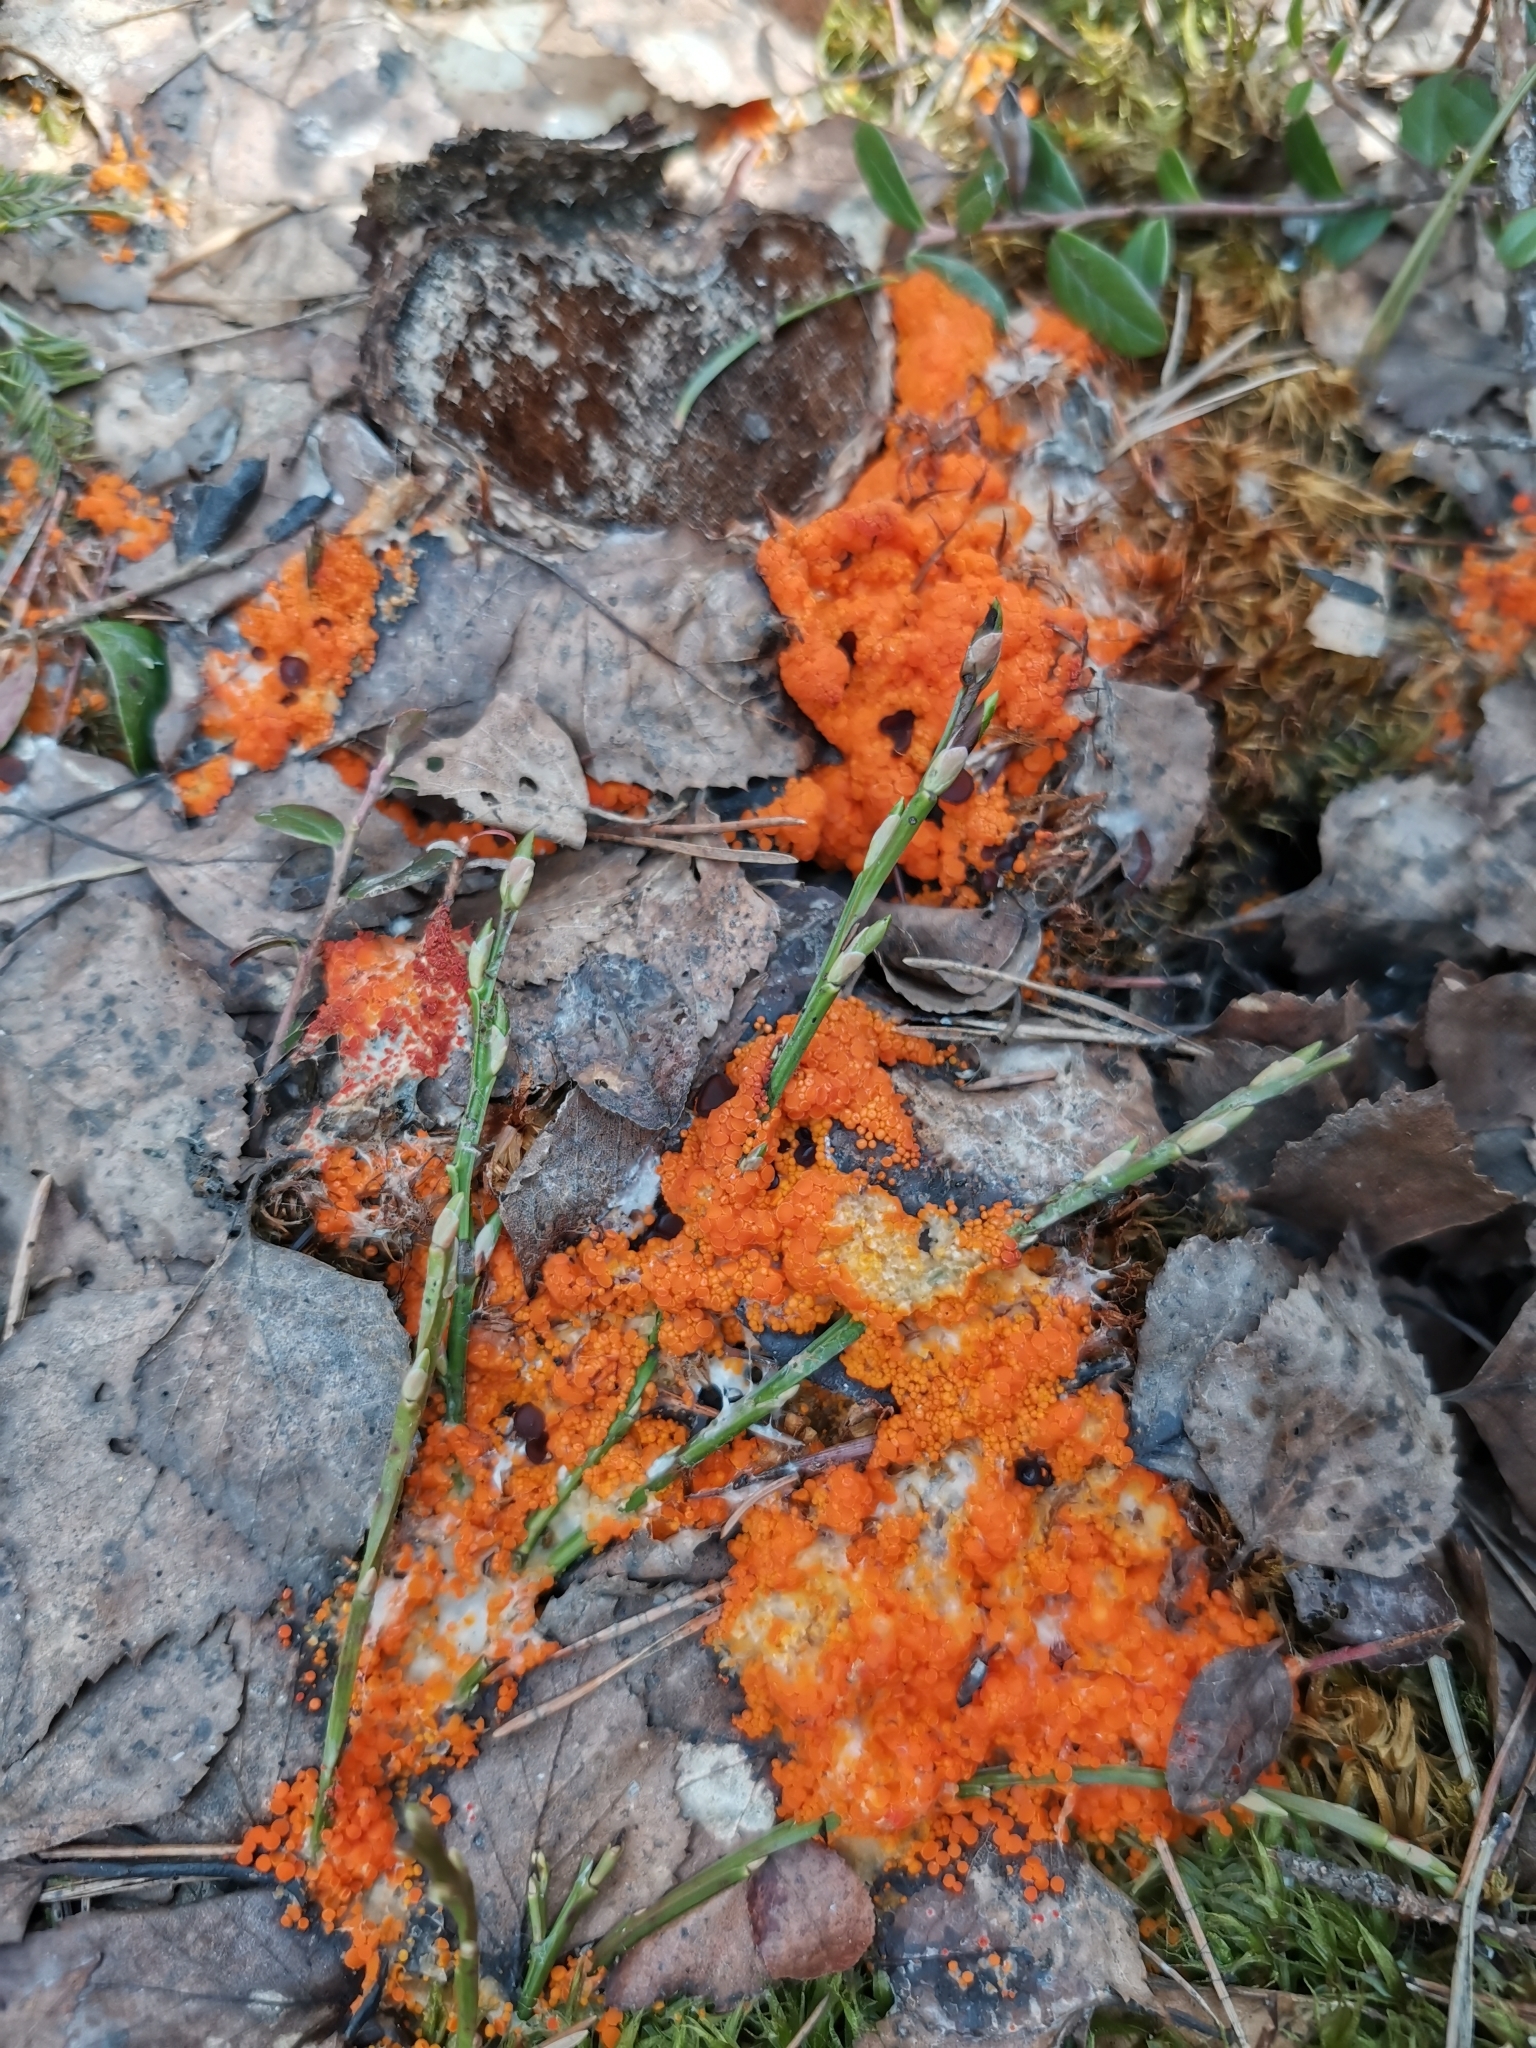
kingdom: Fungi
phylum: Ascomycota
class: Pezizomycetes
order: Pezizales
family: Pyronemataceae
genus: Byssonectria
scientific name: Byssonectria terrestris
